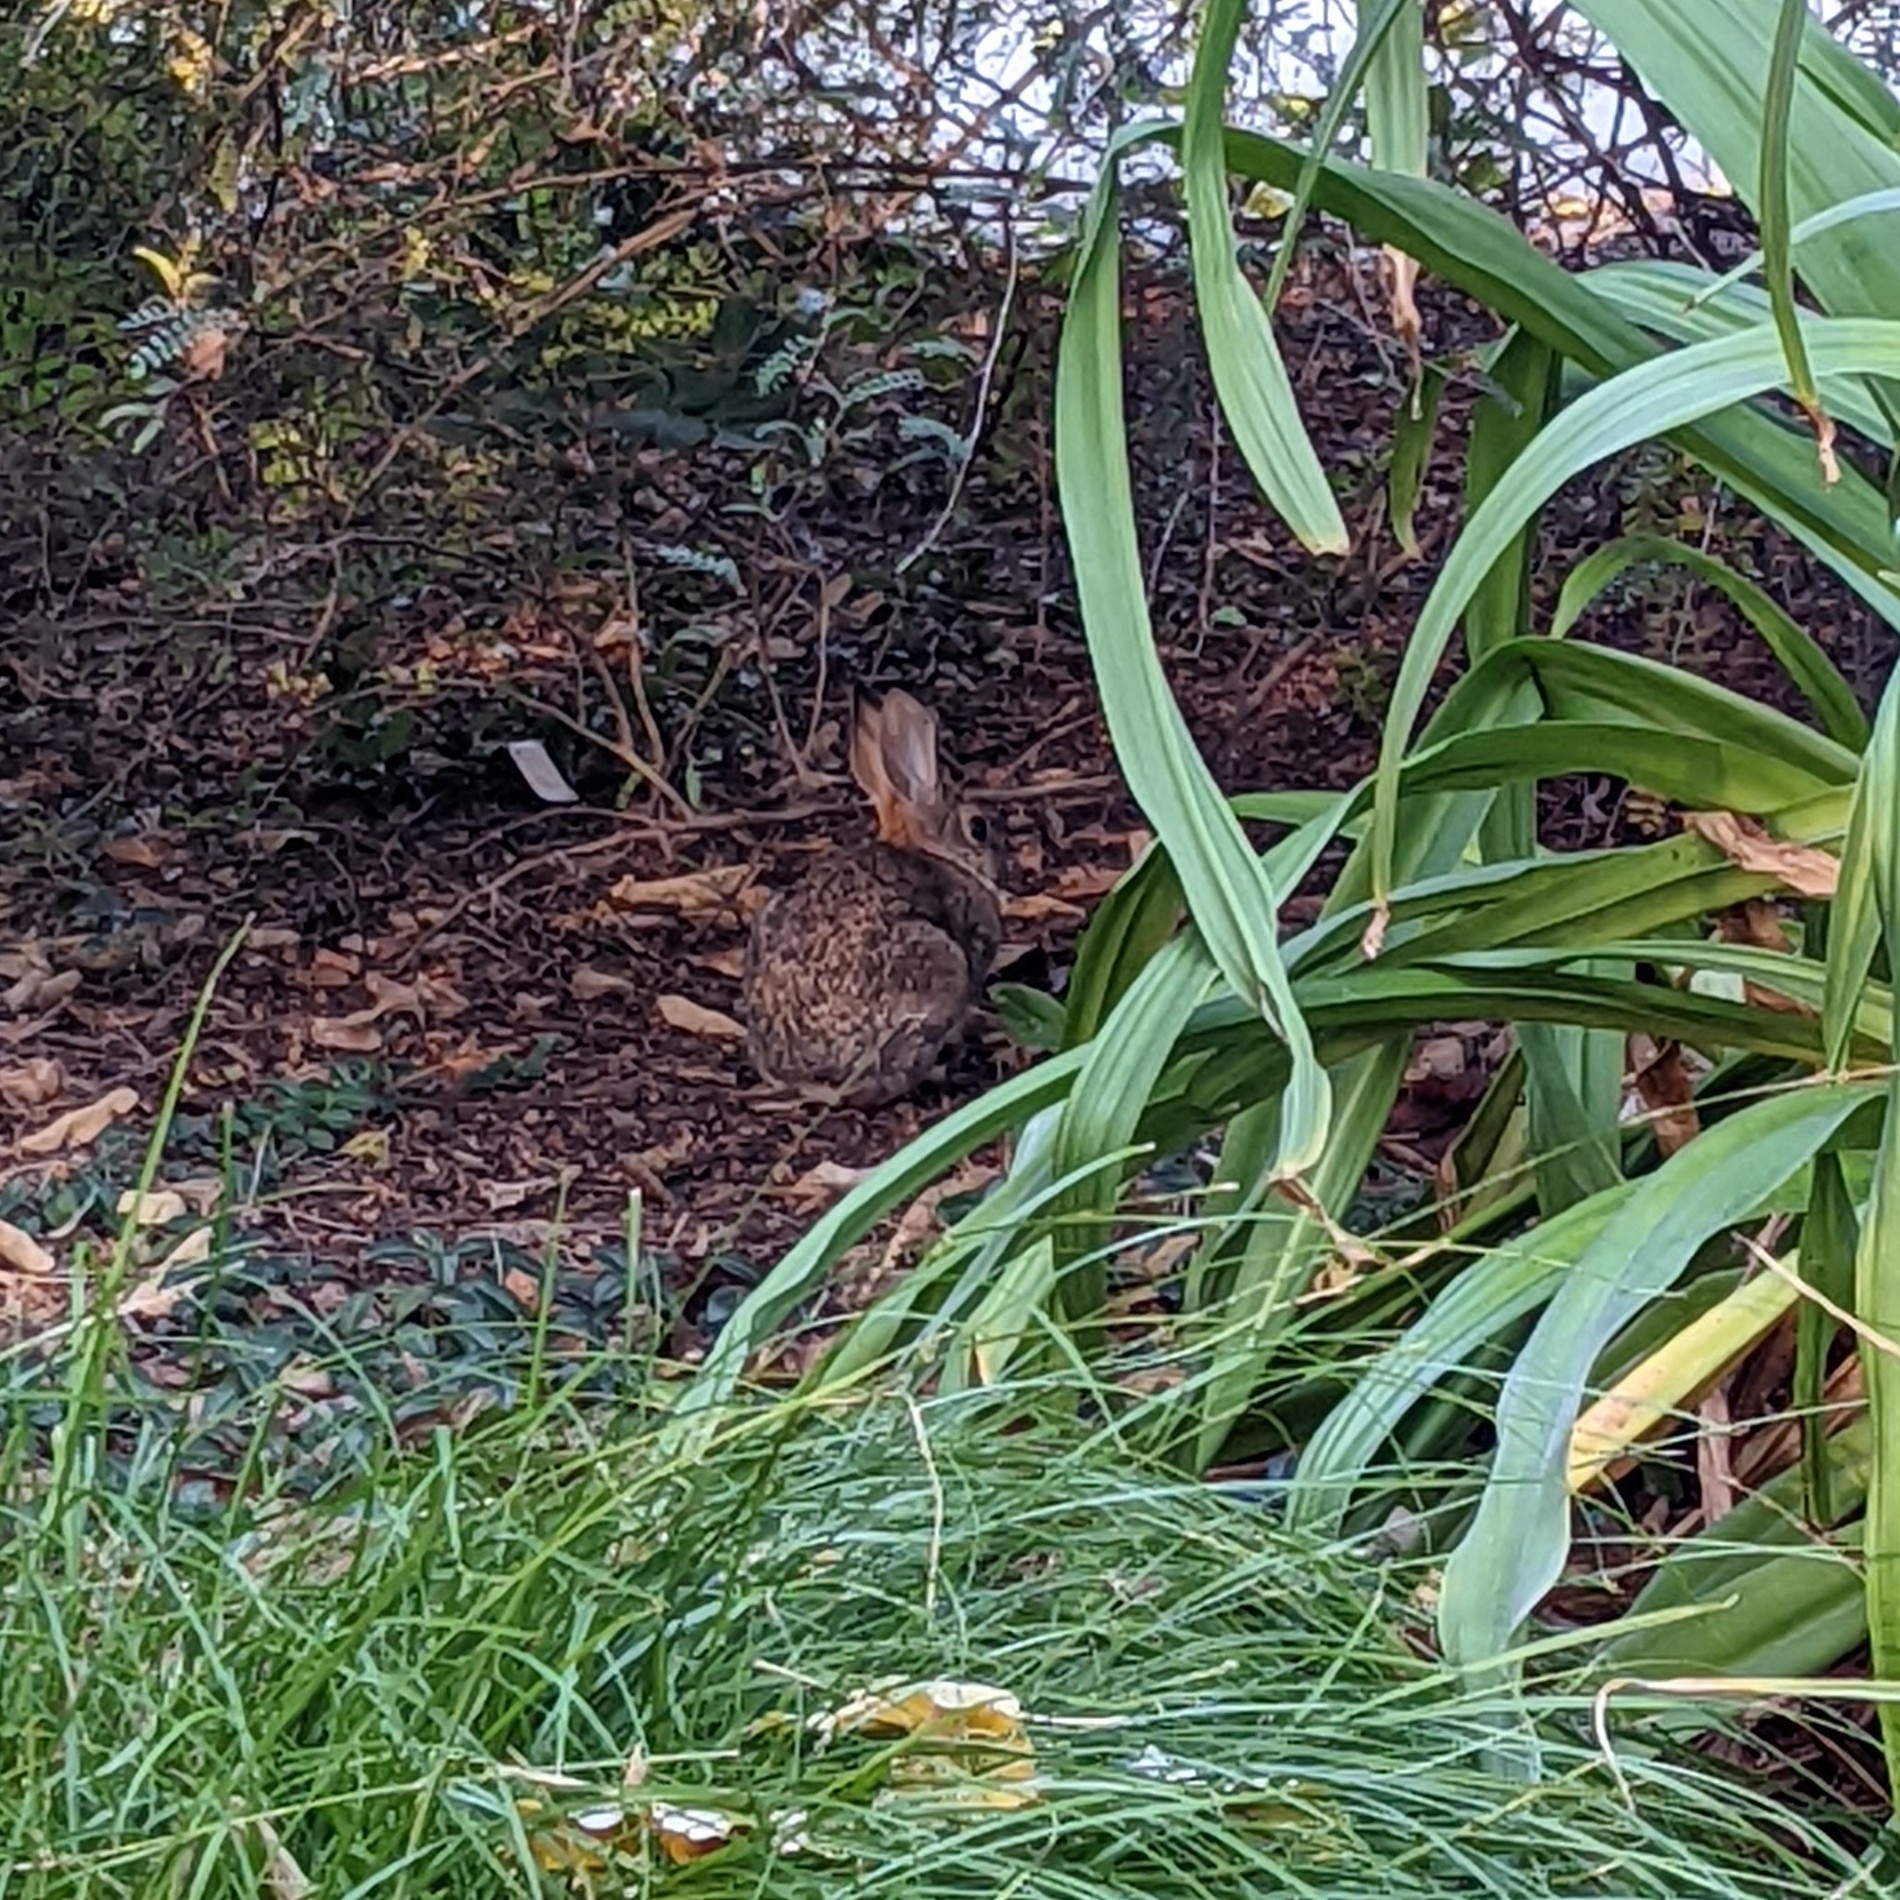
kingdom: Animalia
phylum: Chordata
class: Mammalia
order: Lagomorpha
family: Leporidae
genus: Sylvilagus
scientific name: Sylvilagus audubonii
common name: Desert cottontail
